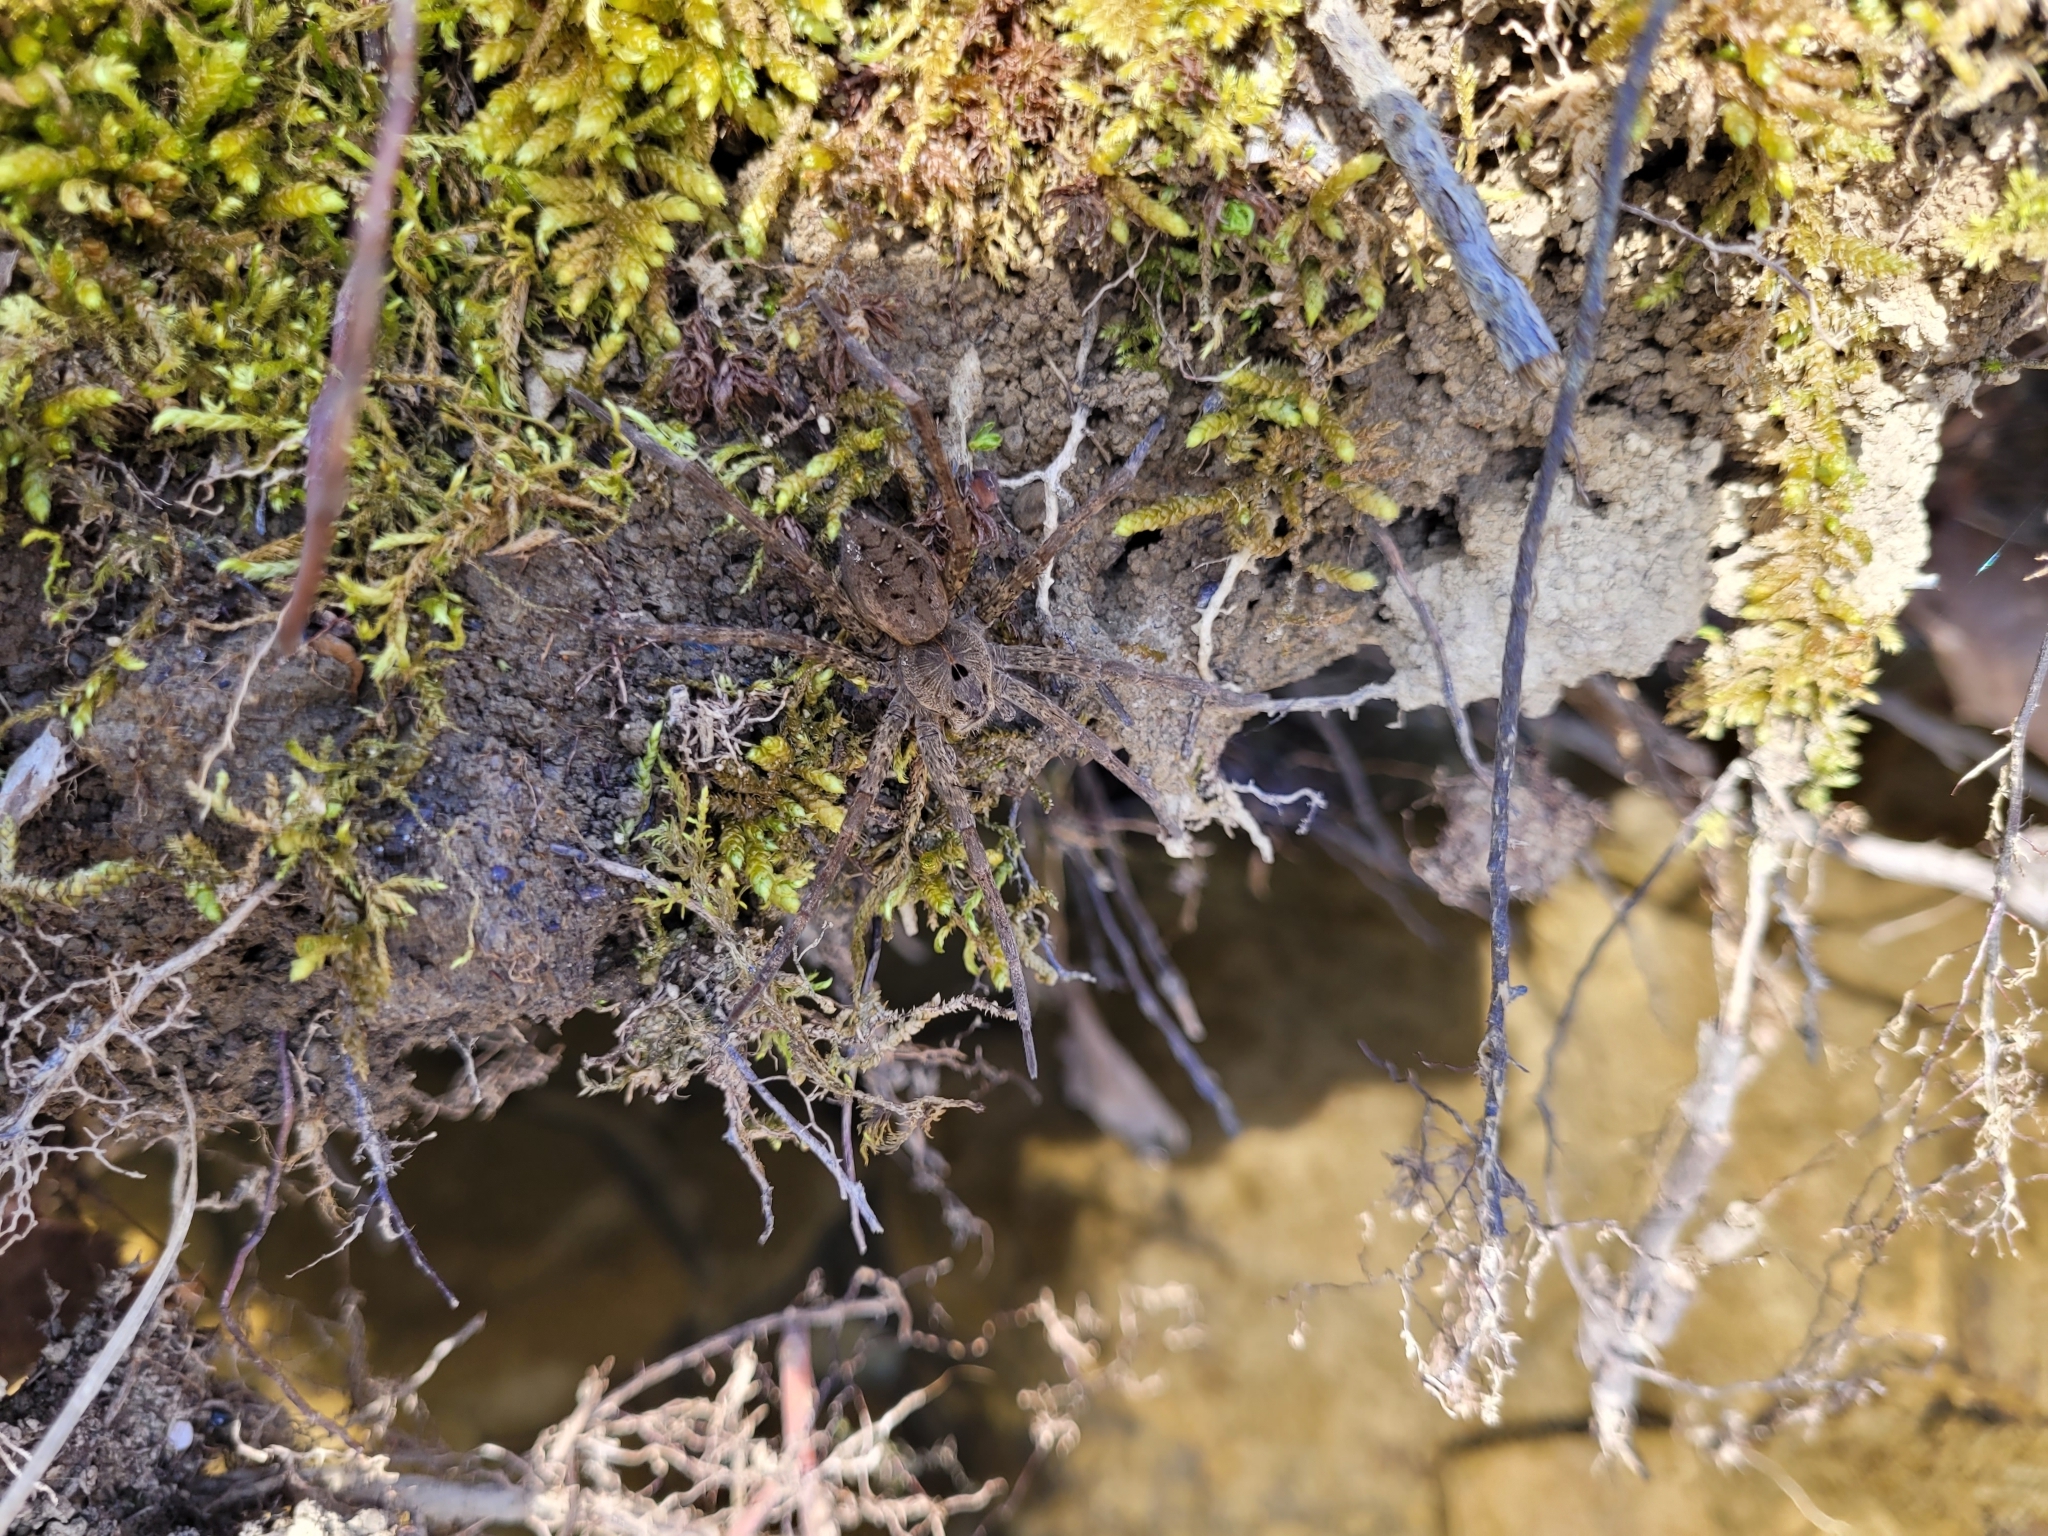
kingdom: Animalia
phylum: Arthropoda
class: Arachnida
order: Araneae
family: Pisauridae
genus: Dolomedes
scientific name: Dolomedes vittatus
